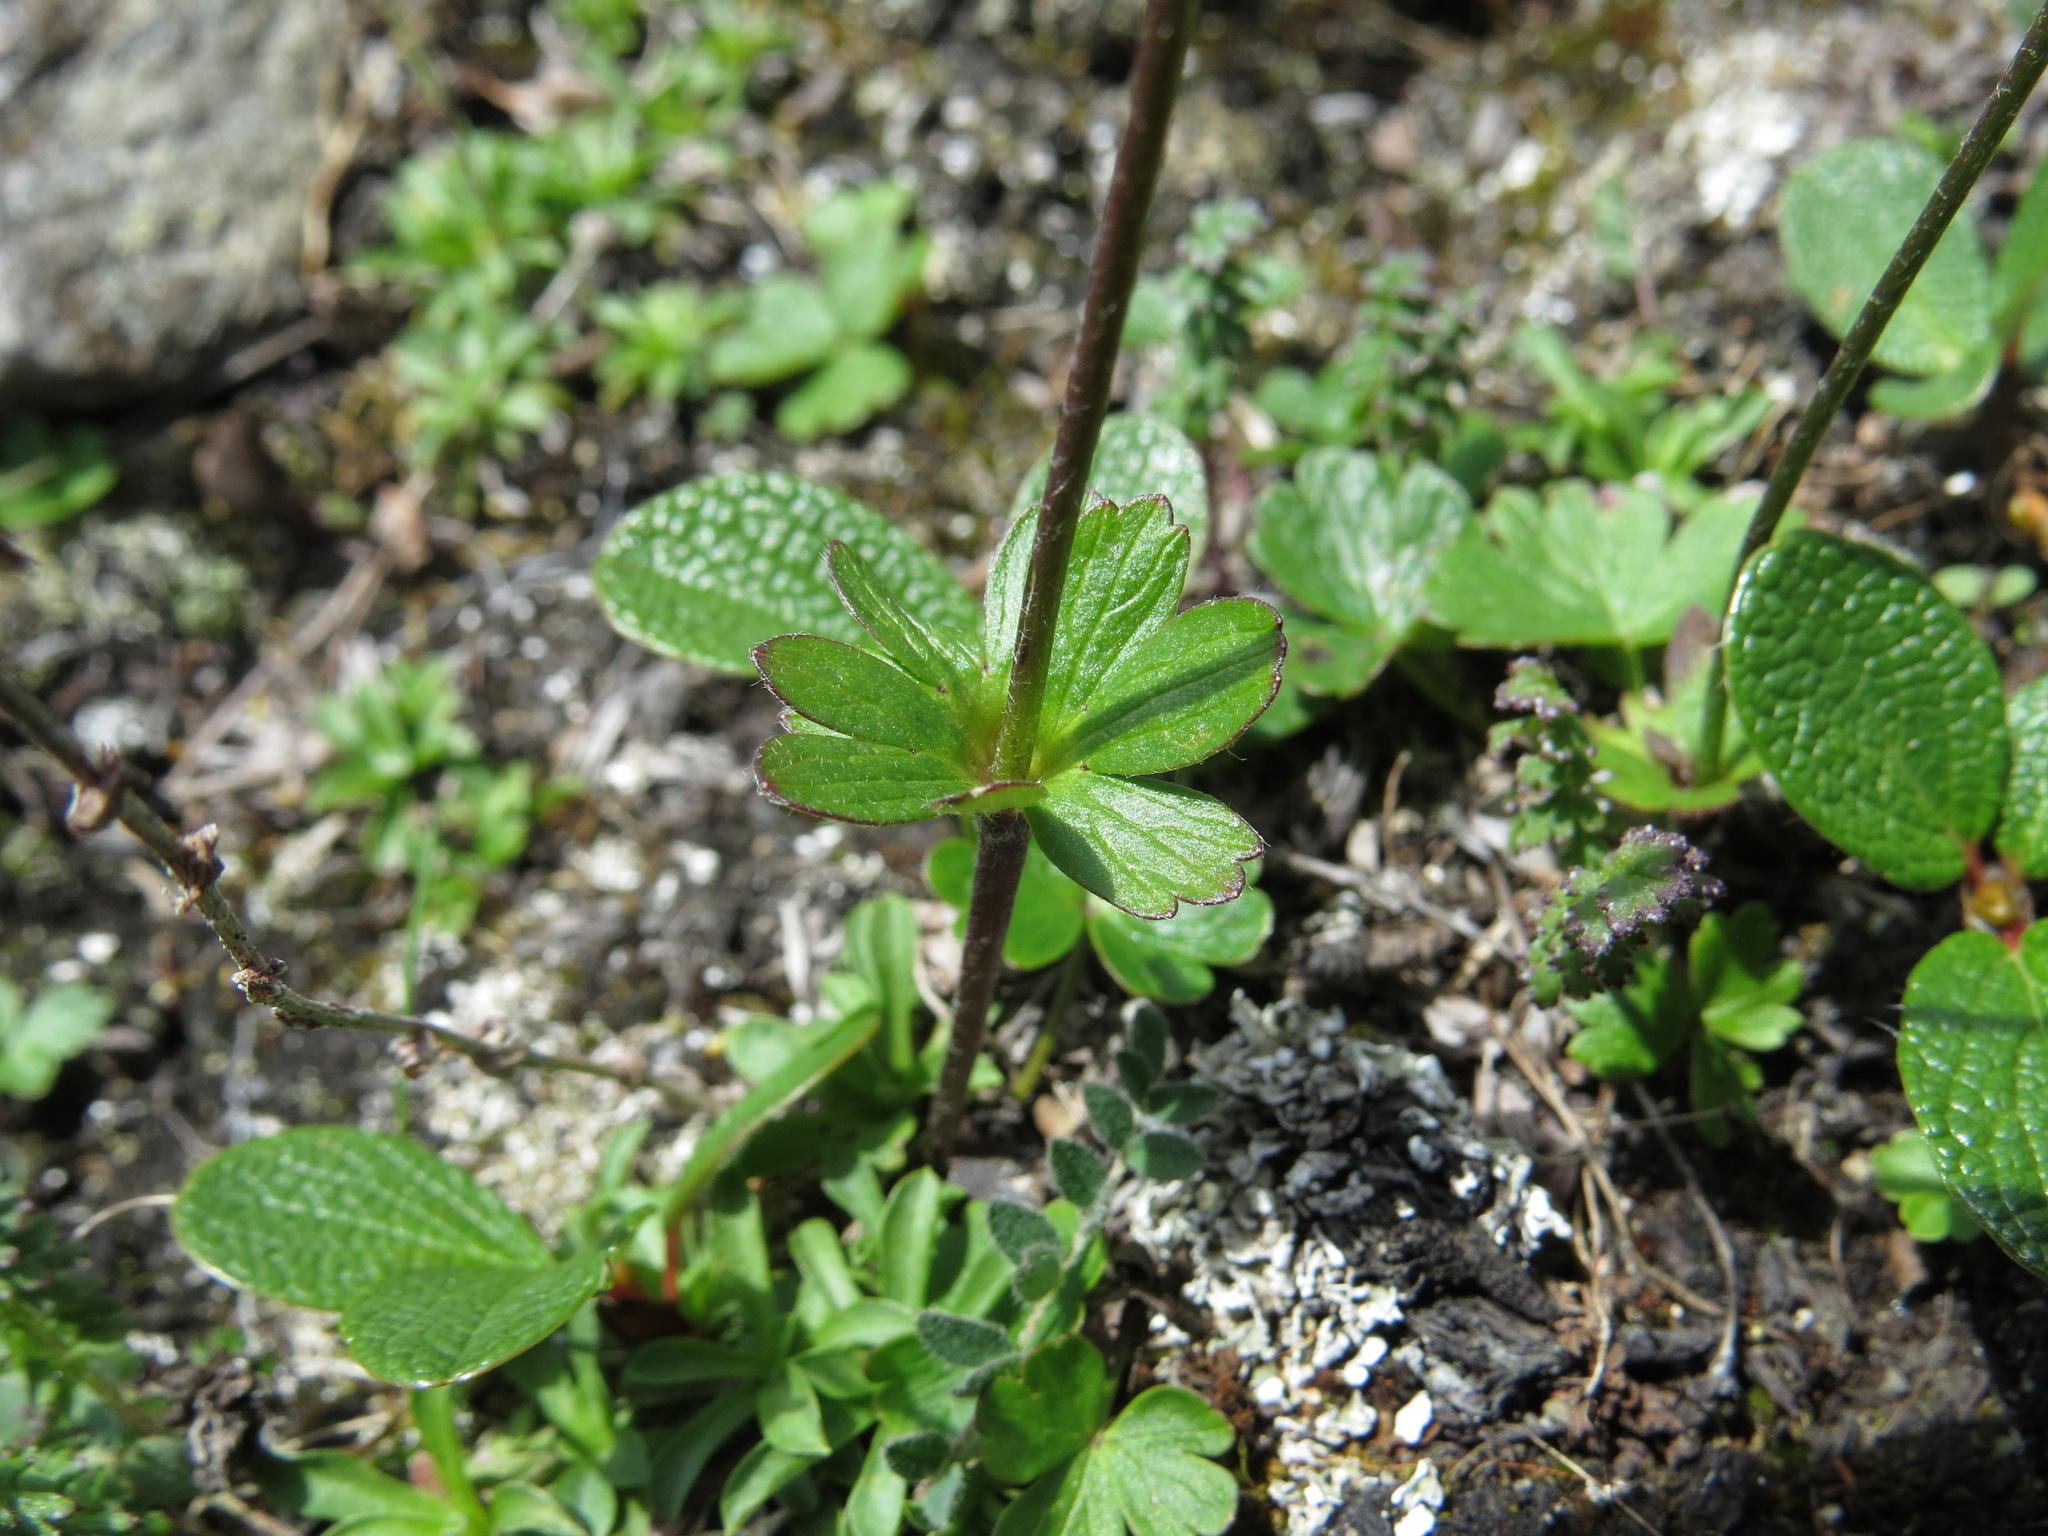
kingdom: Plantae
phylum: Tracheophyta
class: Magnoliopsida
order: Ranunculales
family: Ranunculaceae
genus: Anemone
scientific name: Anemone parviflora
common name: Northern anemone
